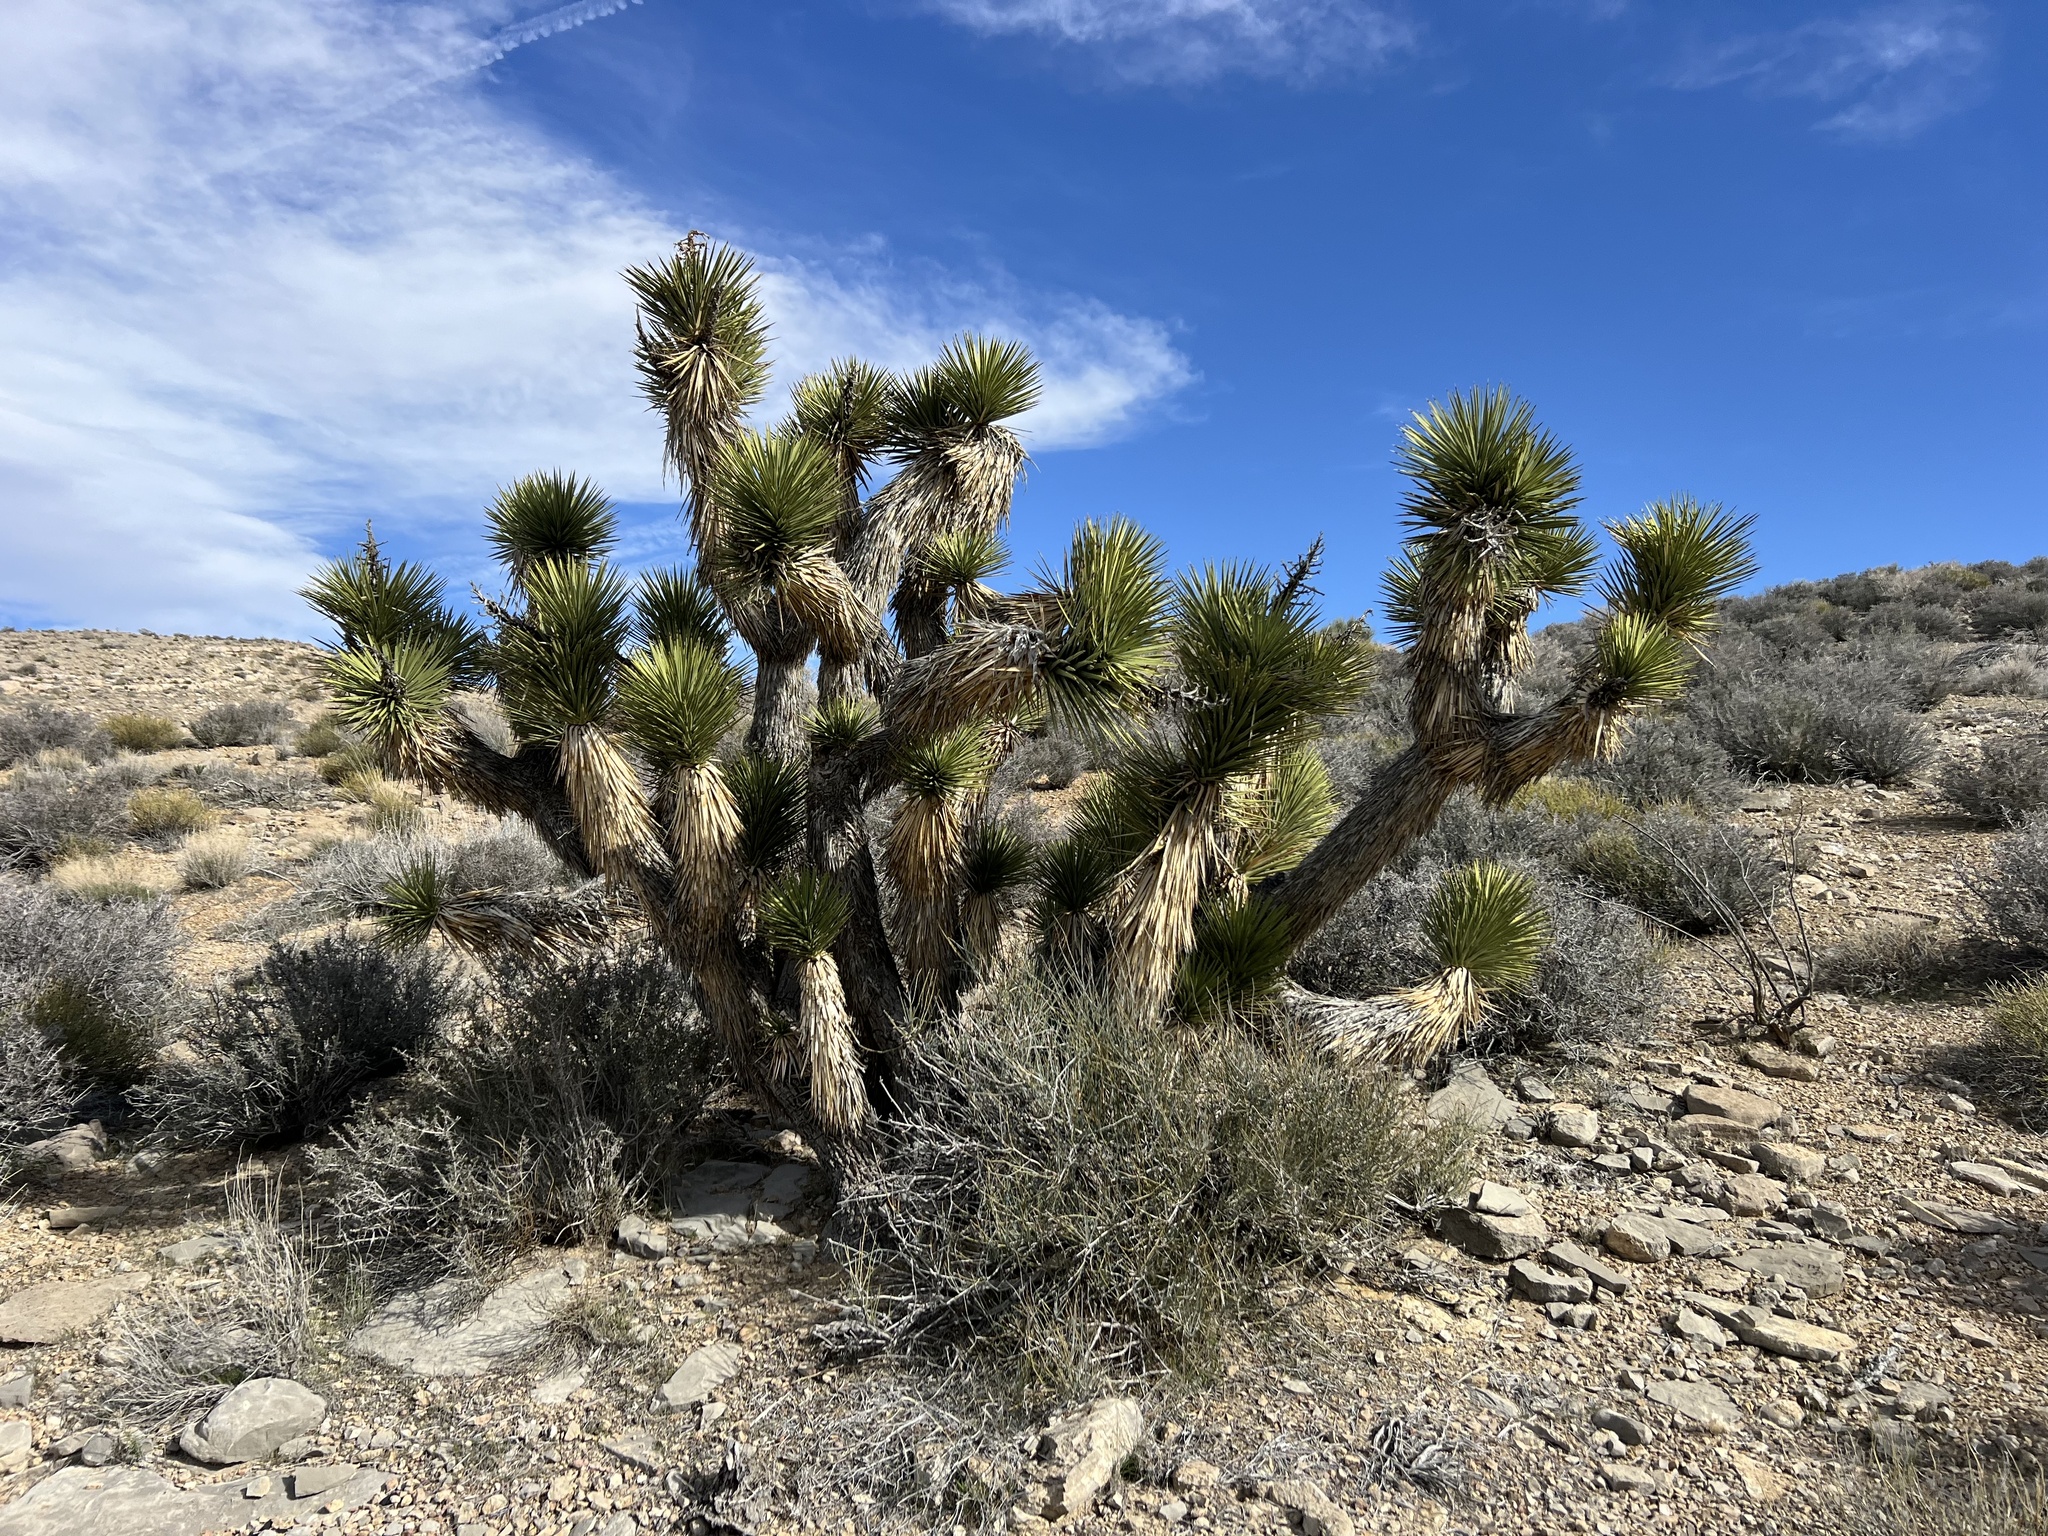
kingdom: Plantae
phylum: Tracheophyta
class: Liliopsida
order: Asparagales
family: Asparagaceae
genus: Yucca
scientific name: Yucca brevifolia
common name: Joshua tree
